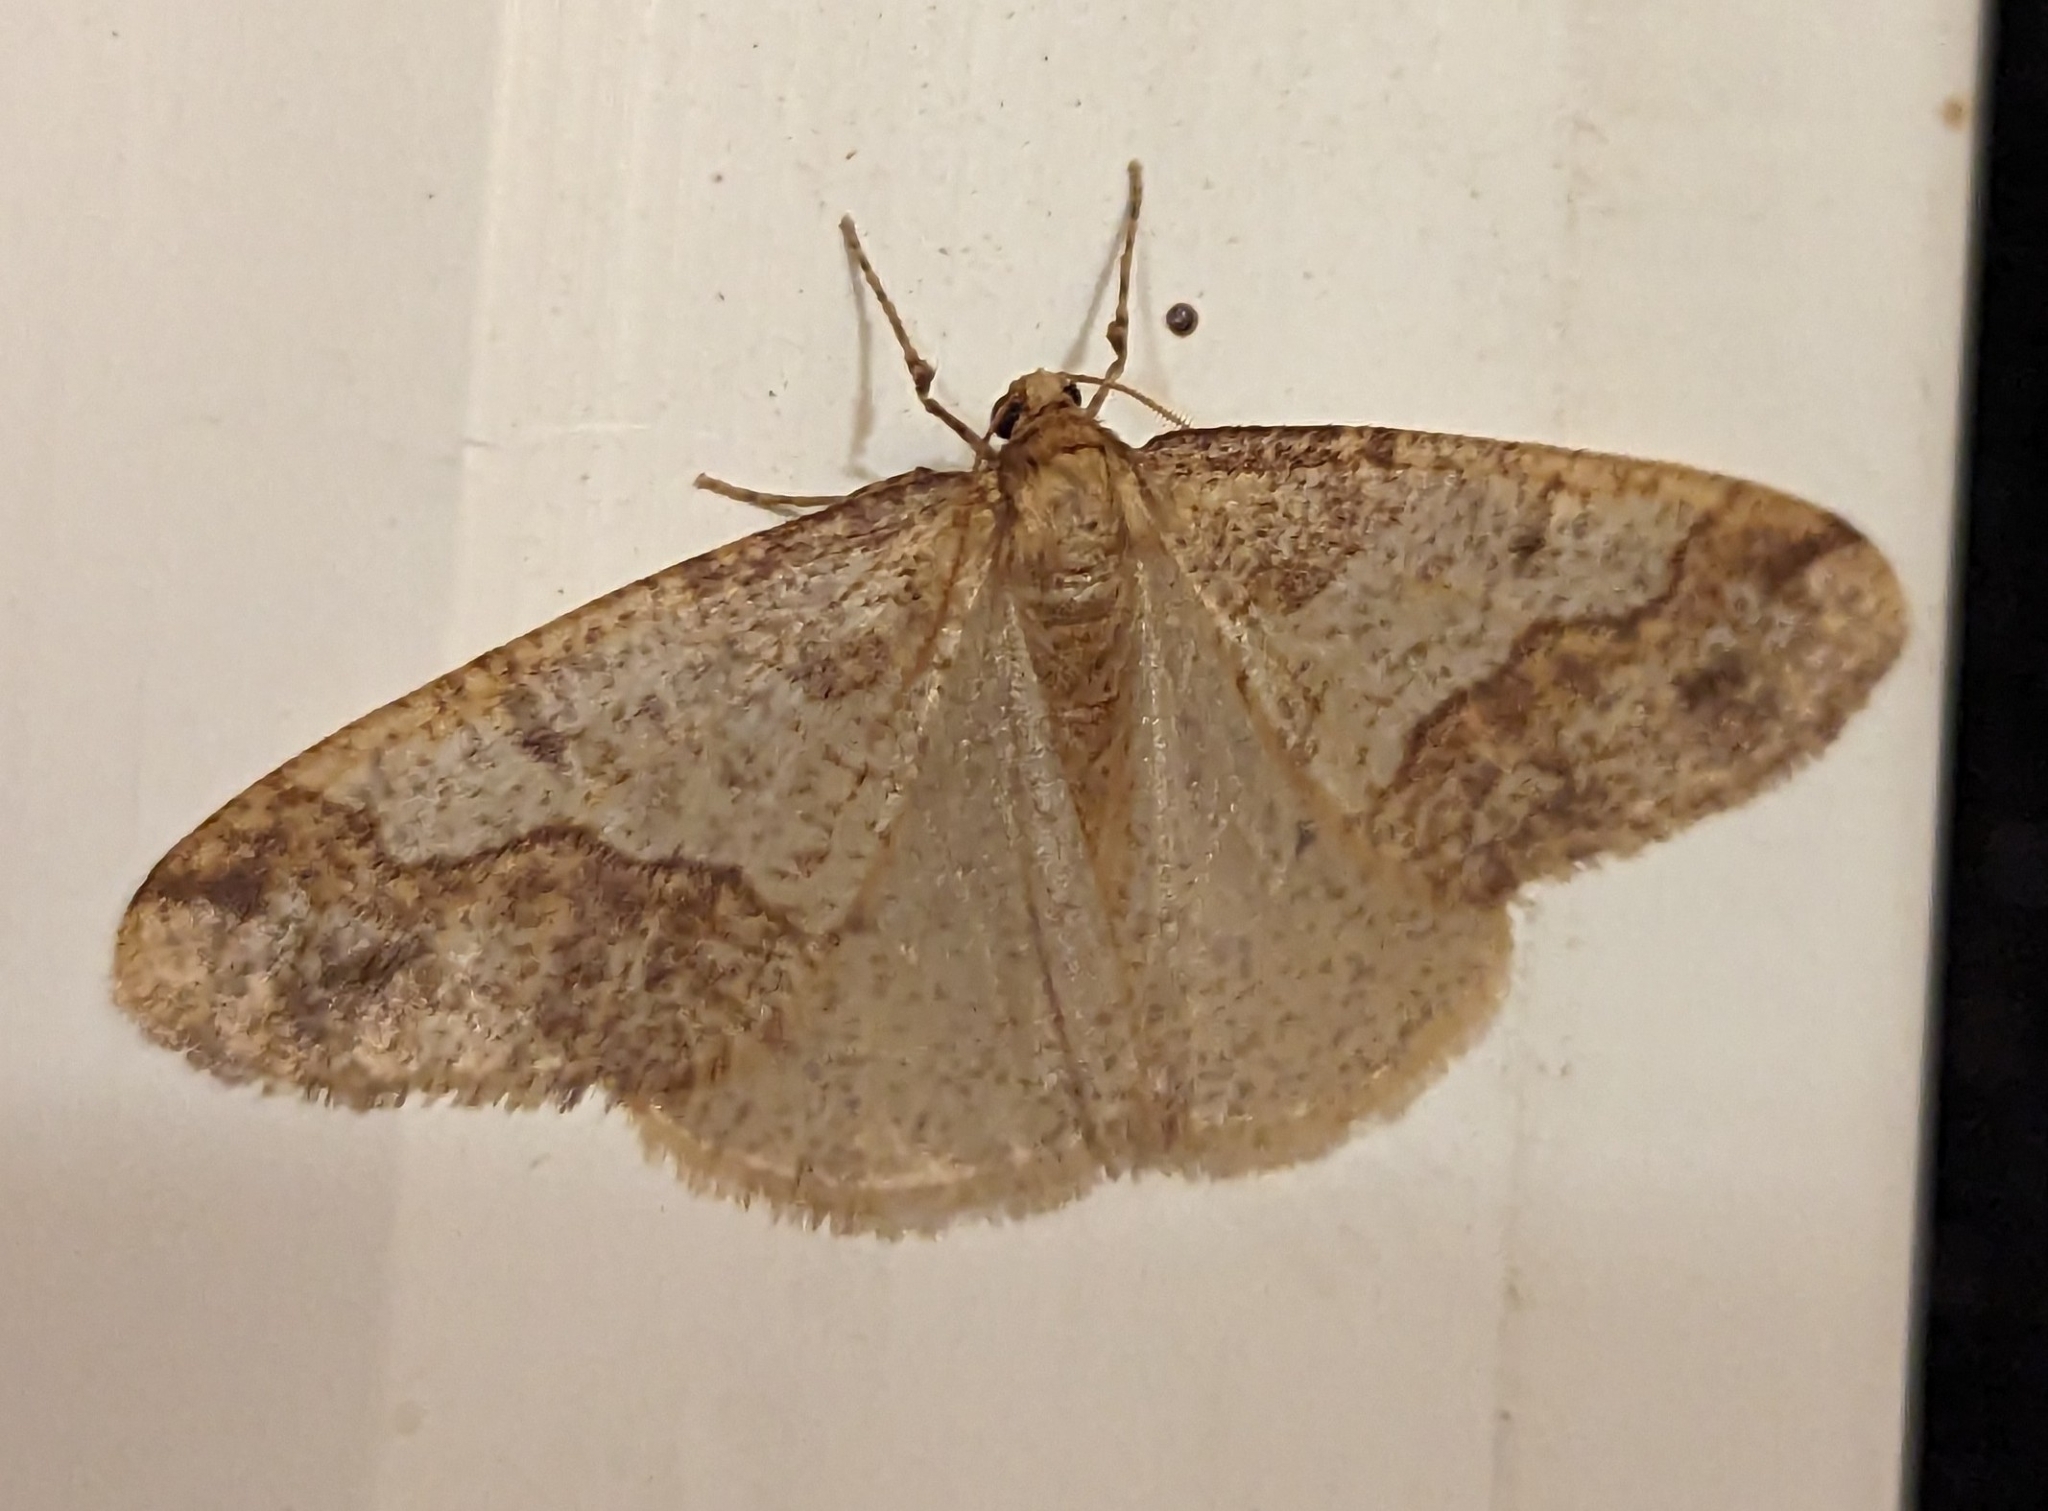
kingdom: Animalia
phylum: Arthropoda
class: Insecta
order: Lepidoptera
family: Geometridae
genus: Erannis
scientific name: Erannis tiliaria
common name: Linden looper
